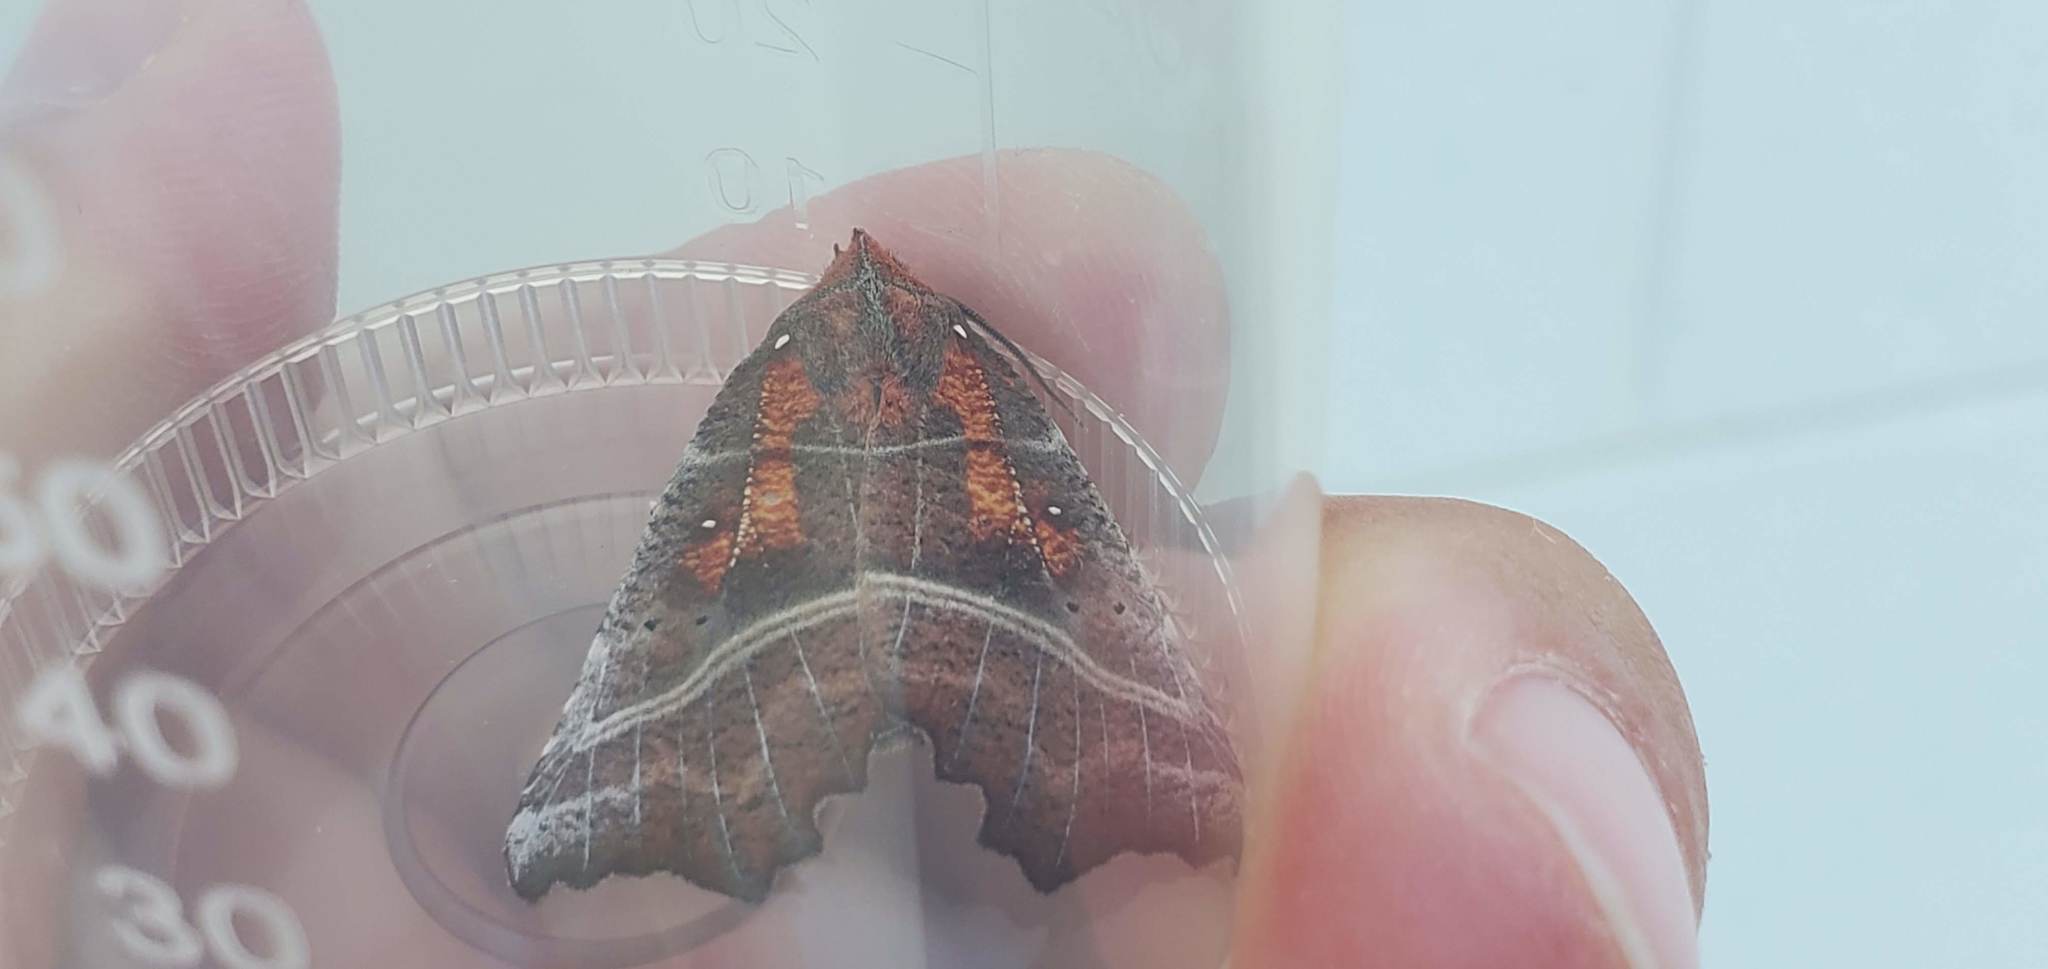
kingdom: Animalia
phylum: Arthropoda
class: Insecta
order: Lepidoptera
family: Erebidae
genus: Scoliopteryx
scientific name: Scoliopteryx libatrix
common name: Herald
